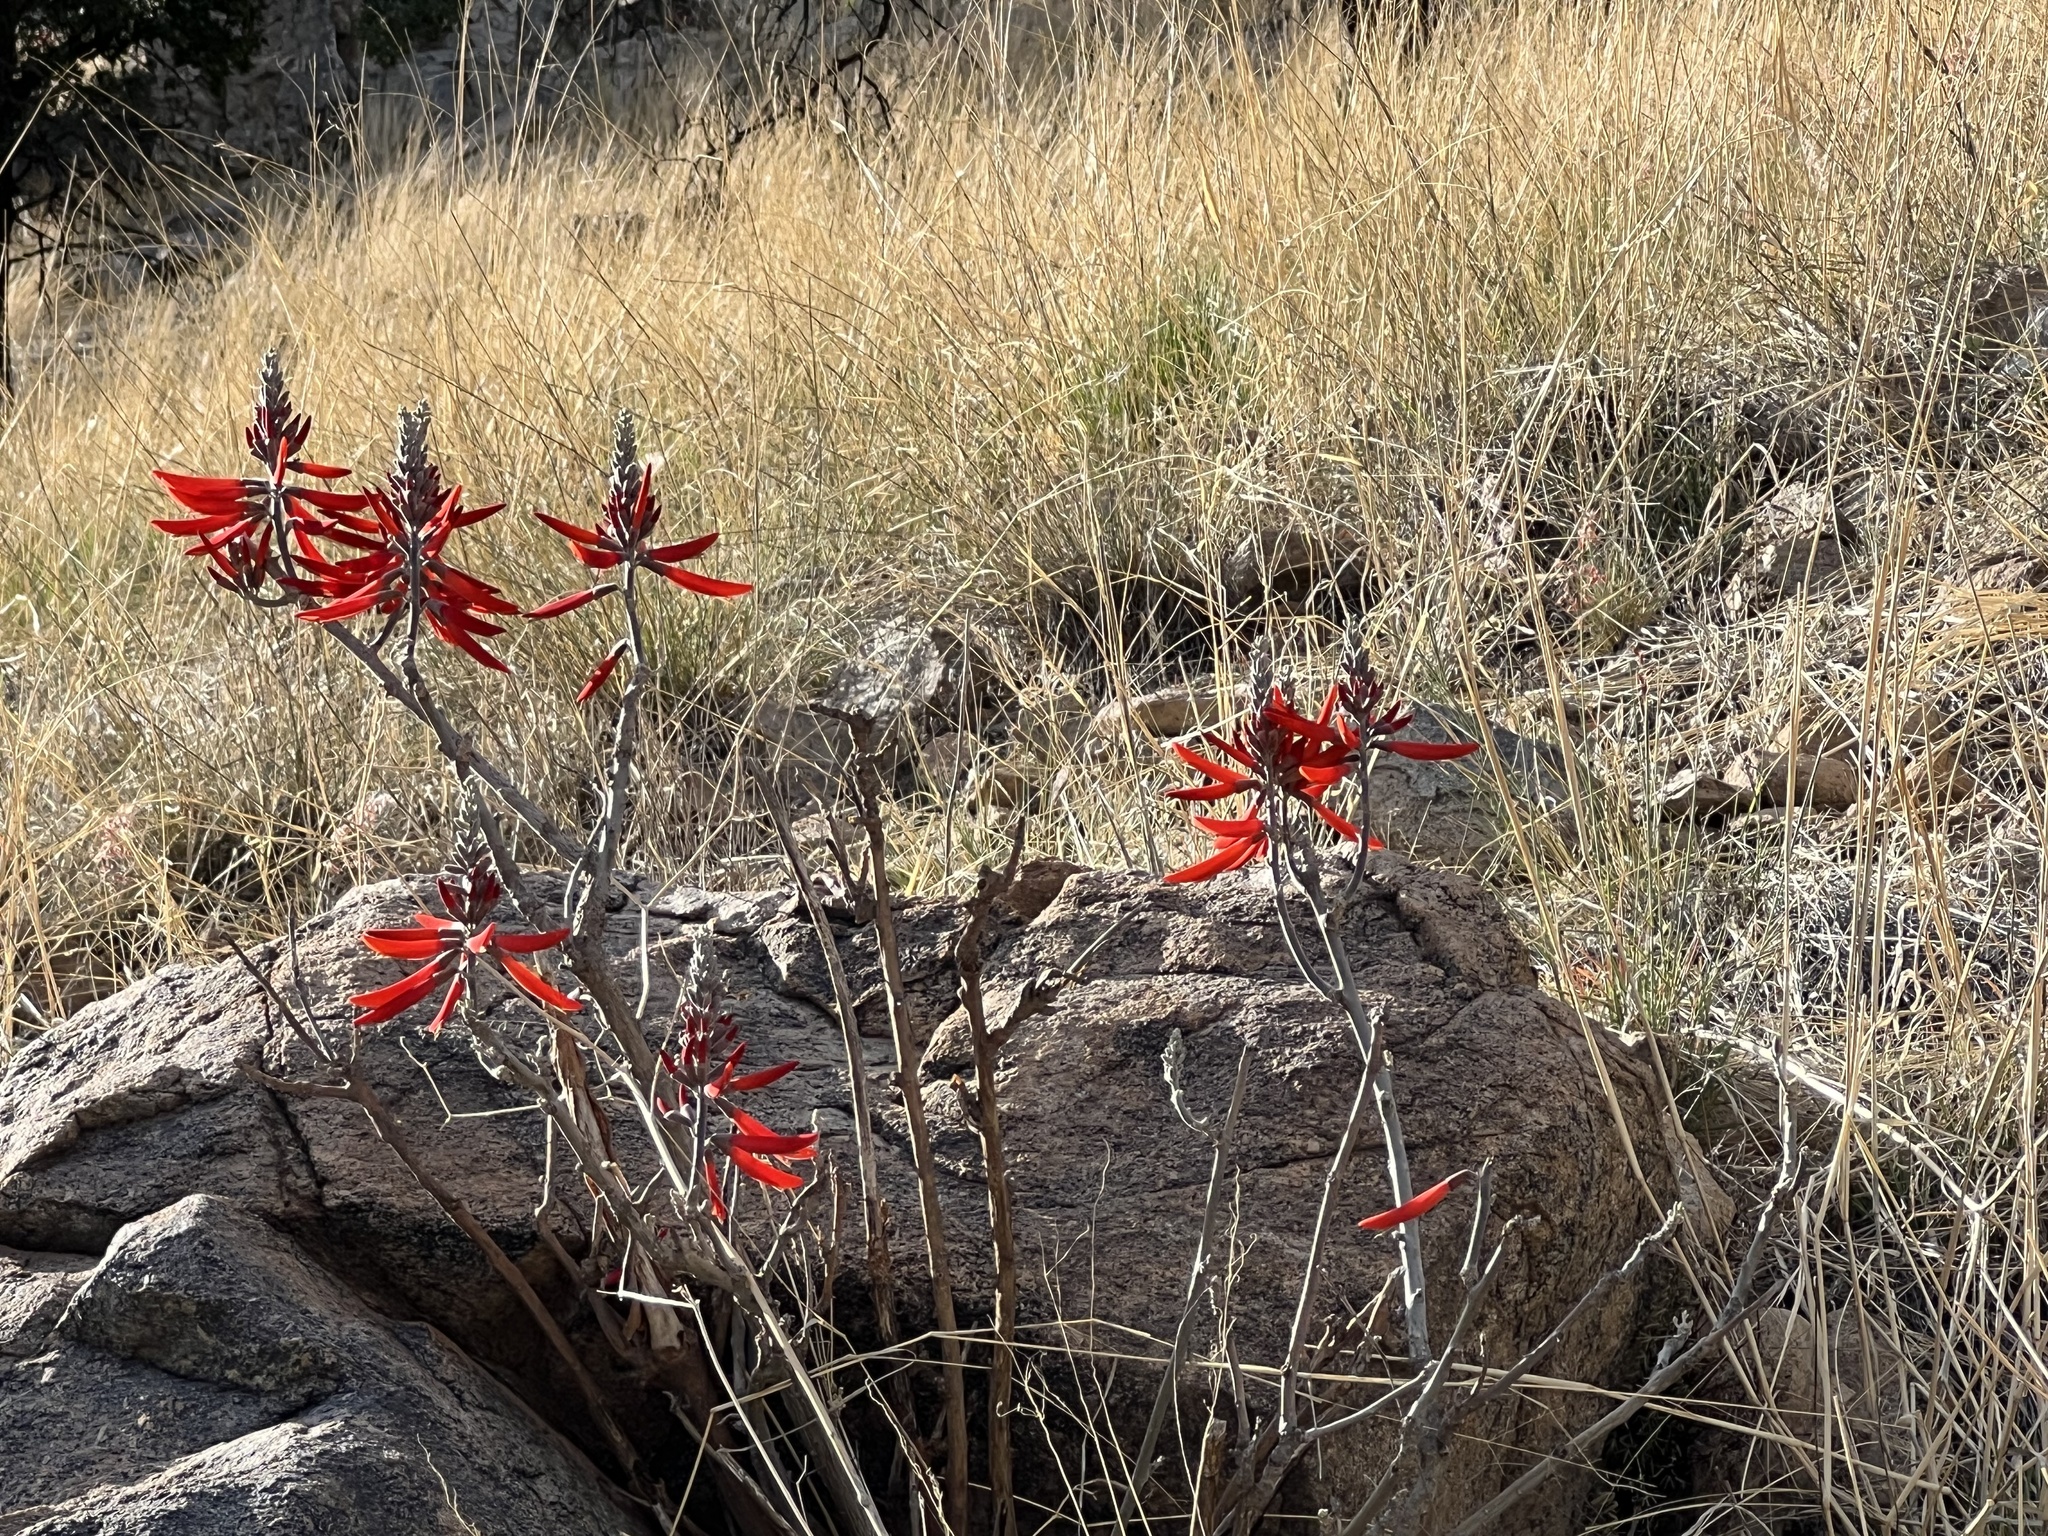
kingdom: Plantae
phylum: Tracheophyta
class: Magnoliopsida
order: Fabales
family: Fabaceae
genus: Erythrina
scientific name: Erythrina flabelliformis
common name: Chilicote
